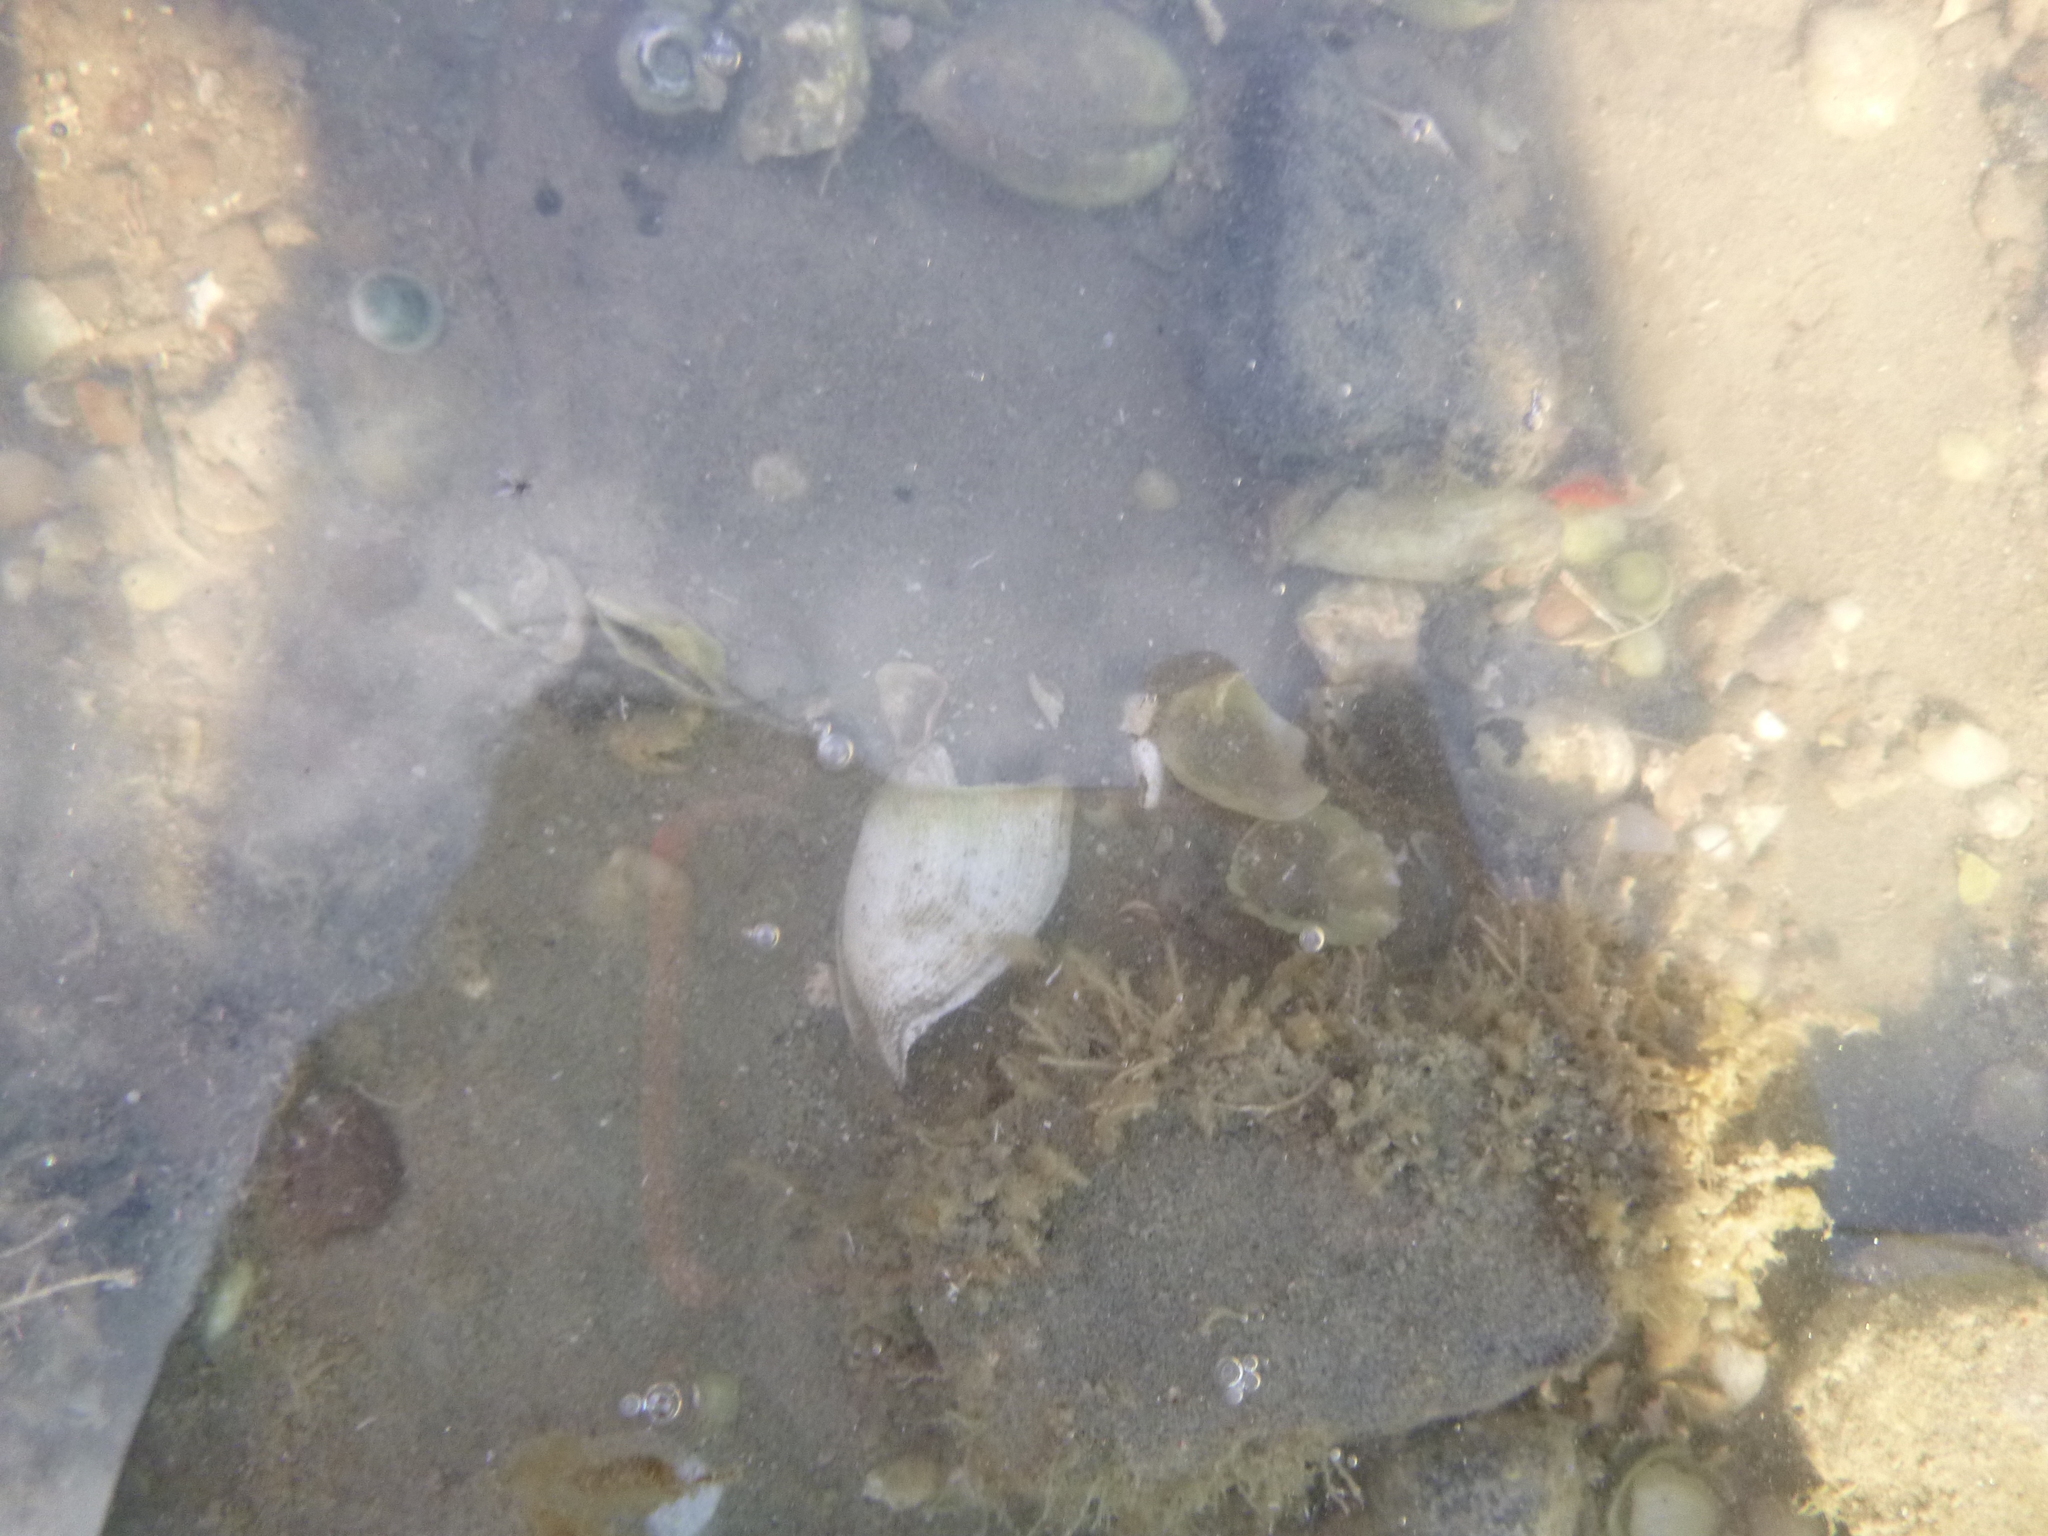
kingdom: Animalia
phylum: Mollusca
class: Bivalvia
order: Myida
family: Pholadidae
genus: Barnea
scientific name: Barnea similis
